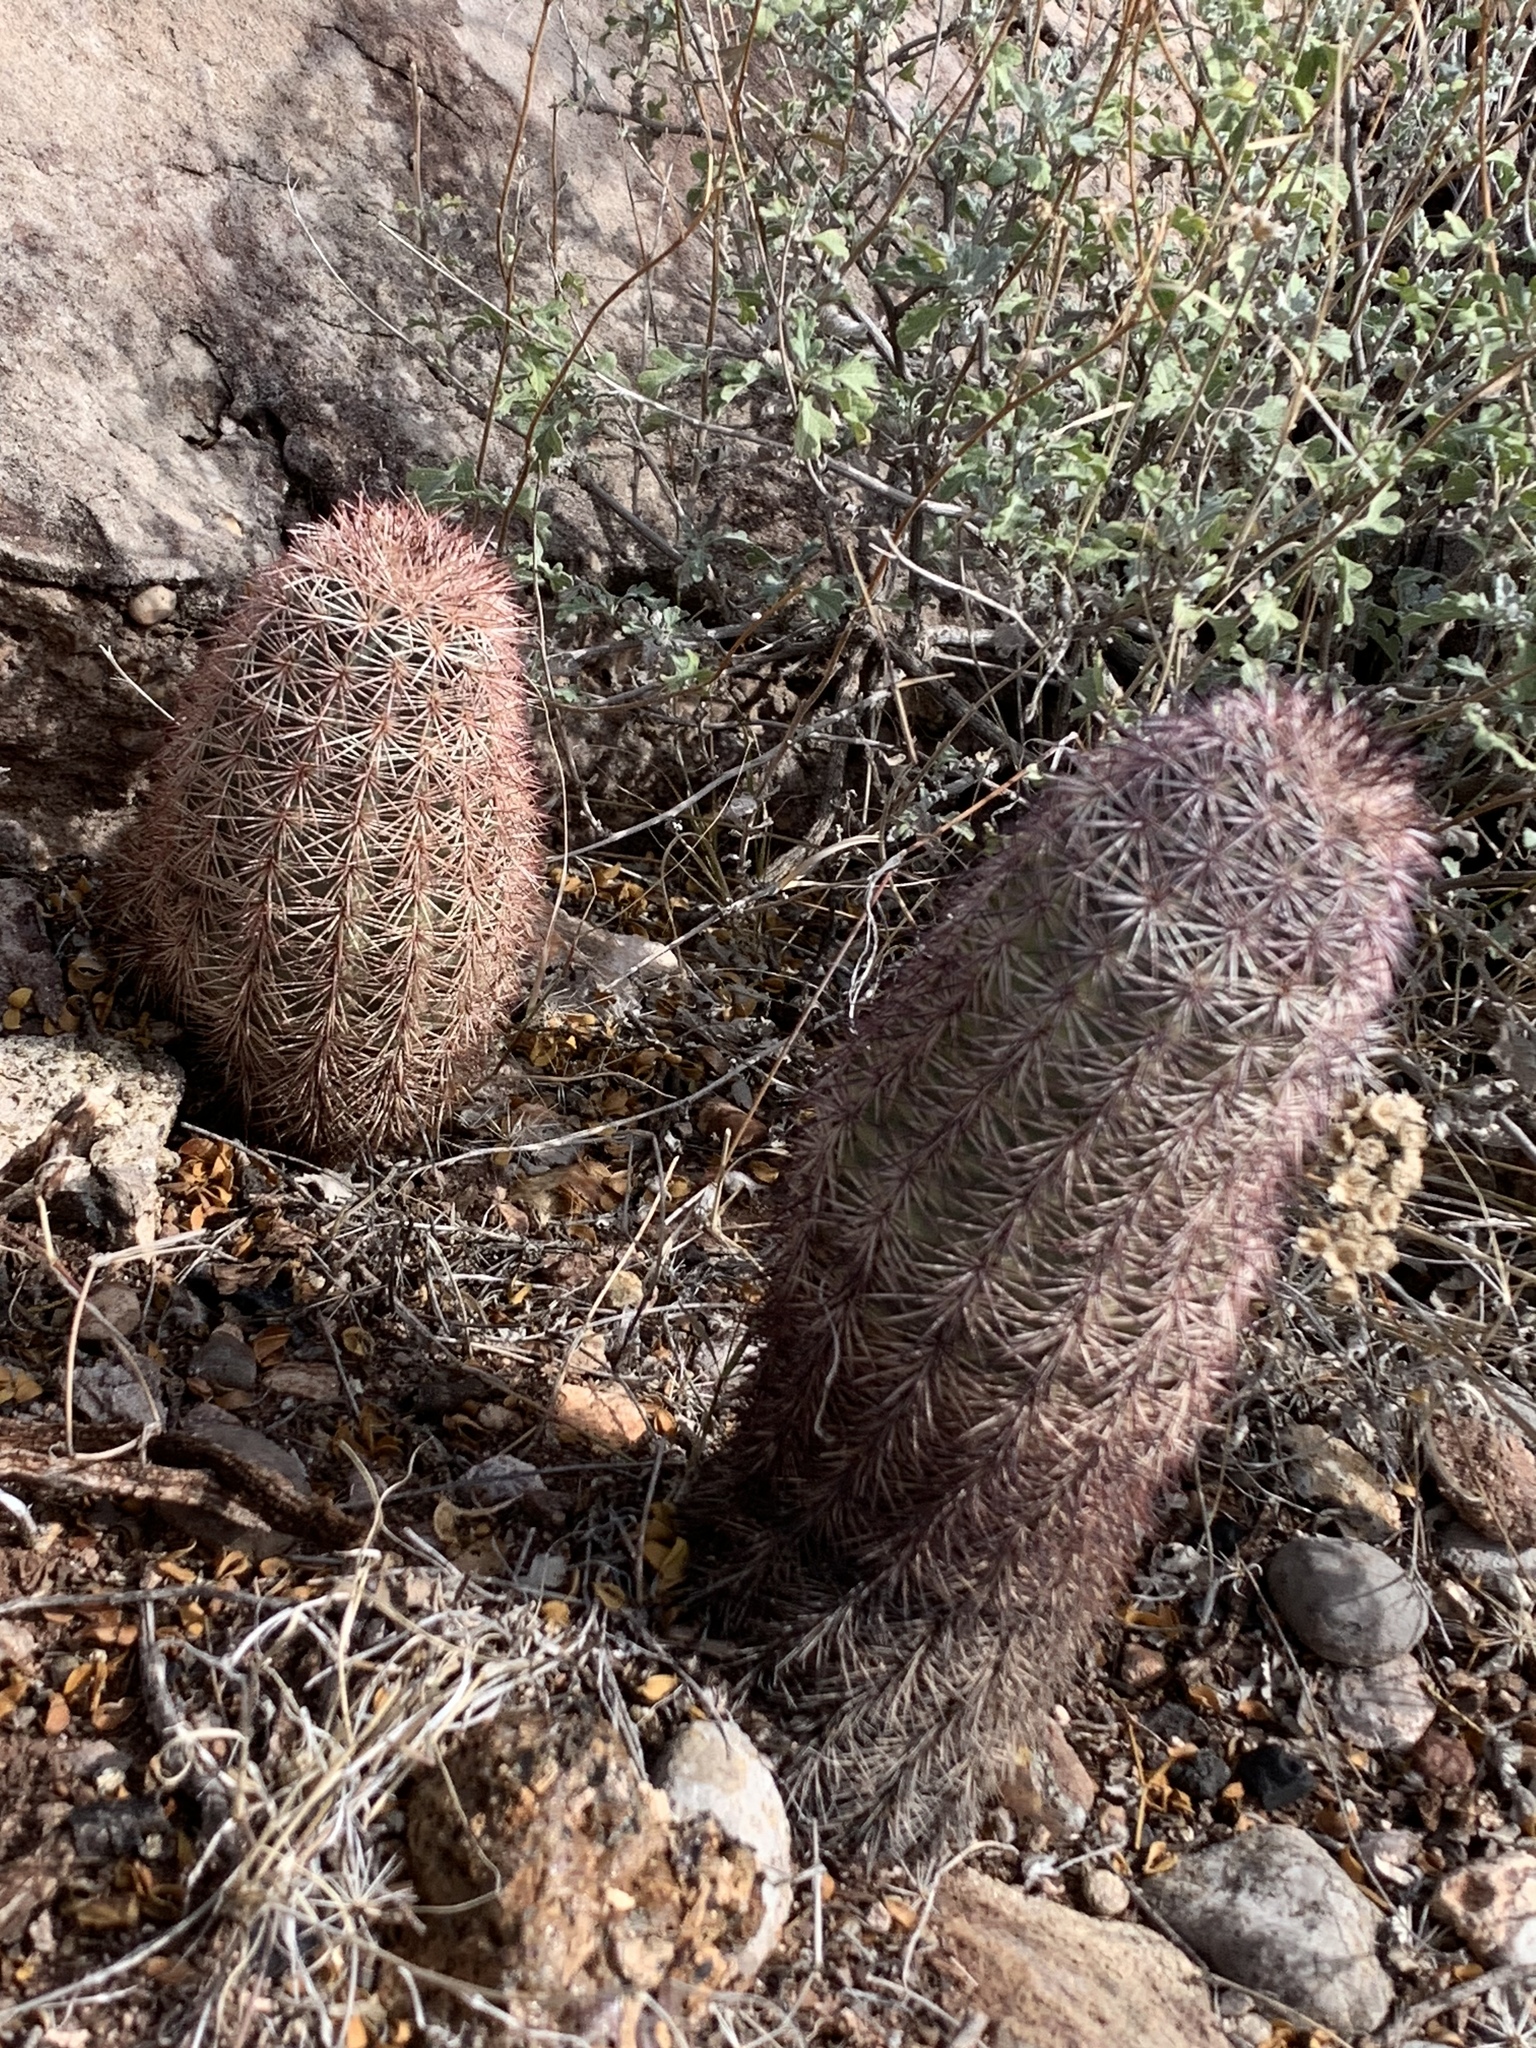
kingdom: Plantae
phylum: Tracheophyta
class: Magnoliopsida
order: Caryophyllales
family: Cactaceae
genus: Echinocereus
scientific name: Echinocereus dasyacanthus
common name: Spiny hedgehog cactus
